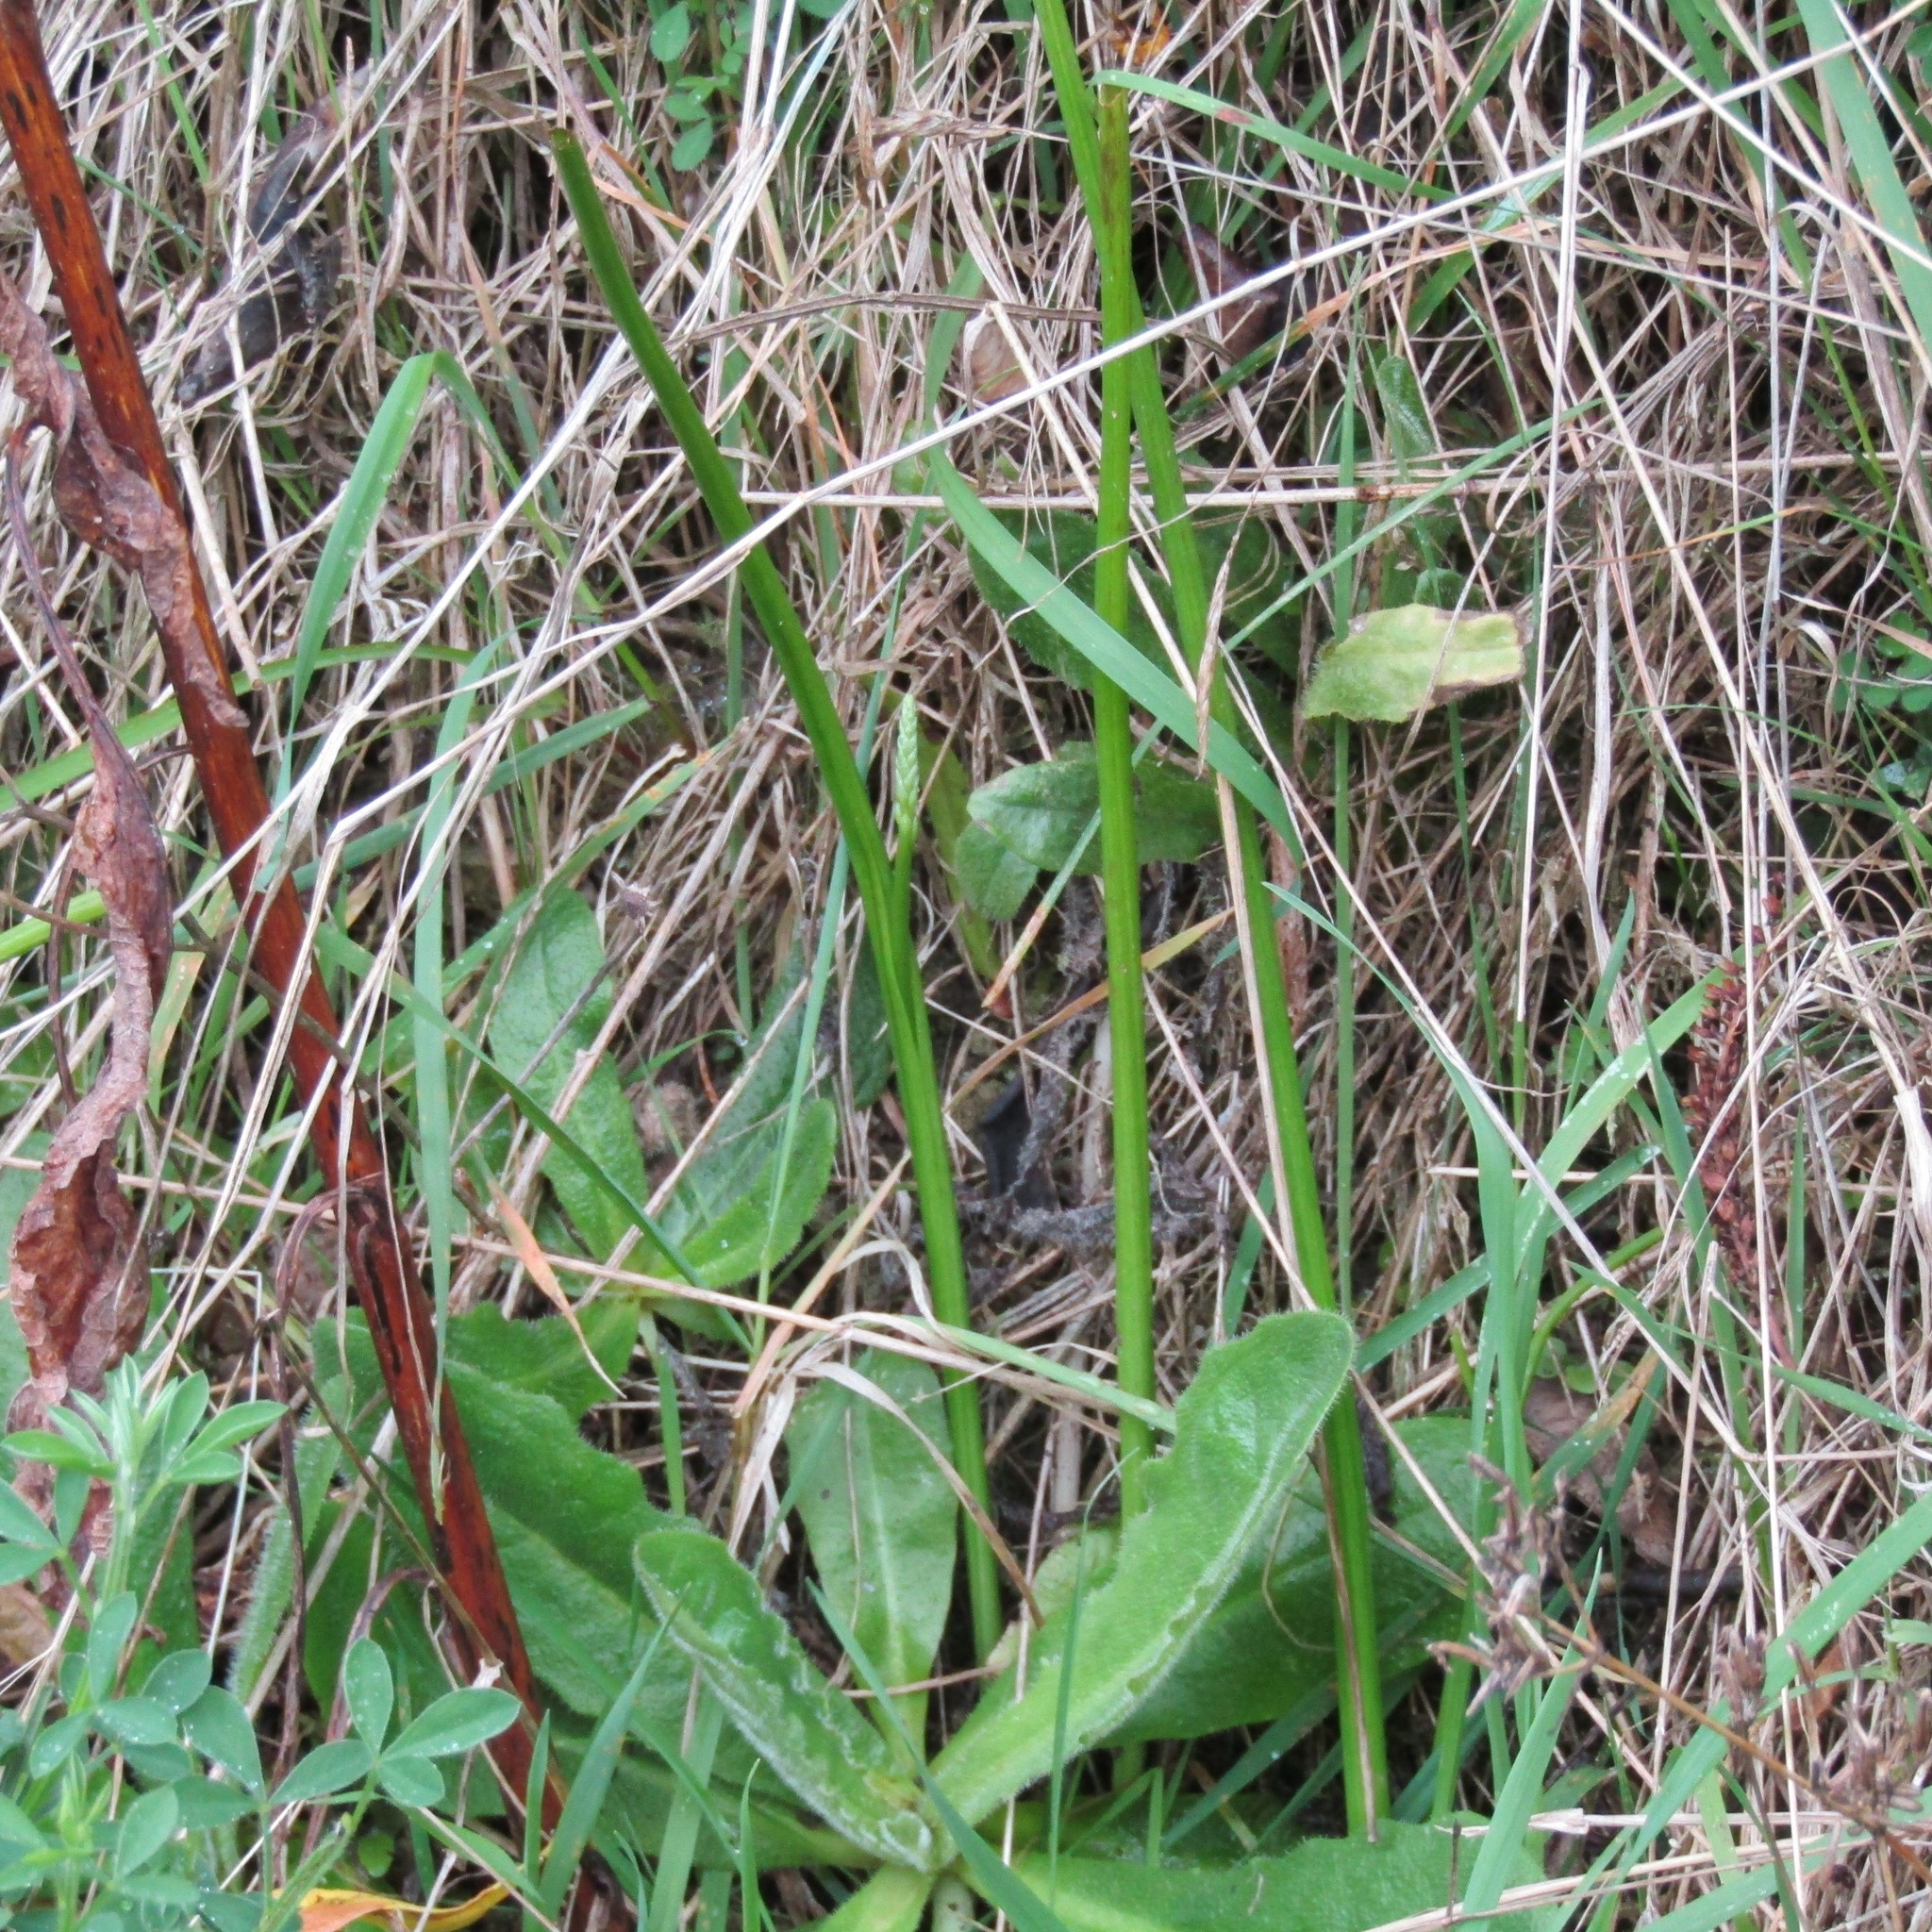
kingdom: Plantae
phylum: Tracheophyta
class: Liliopsida
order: Asparagales
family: Orchidaceae
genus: Microtis
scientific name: Microtis unifolia
